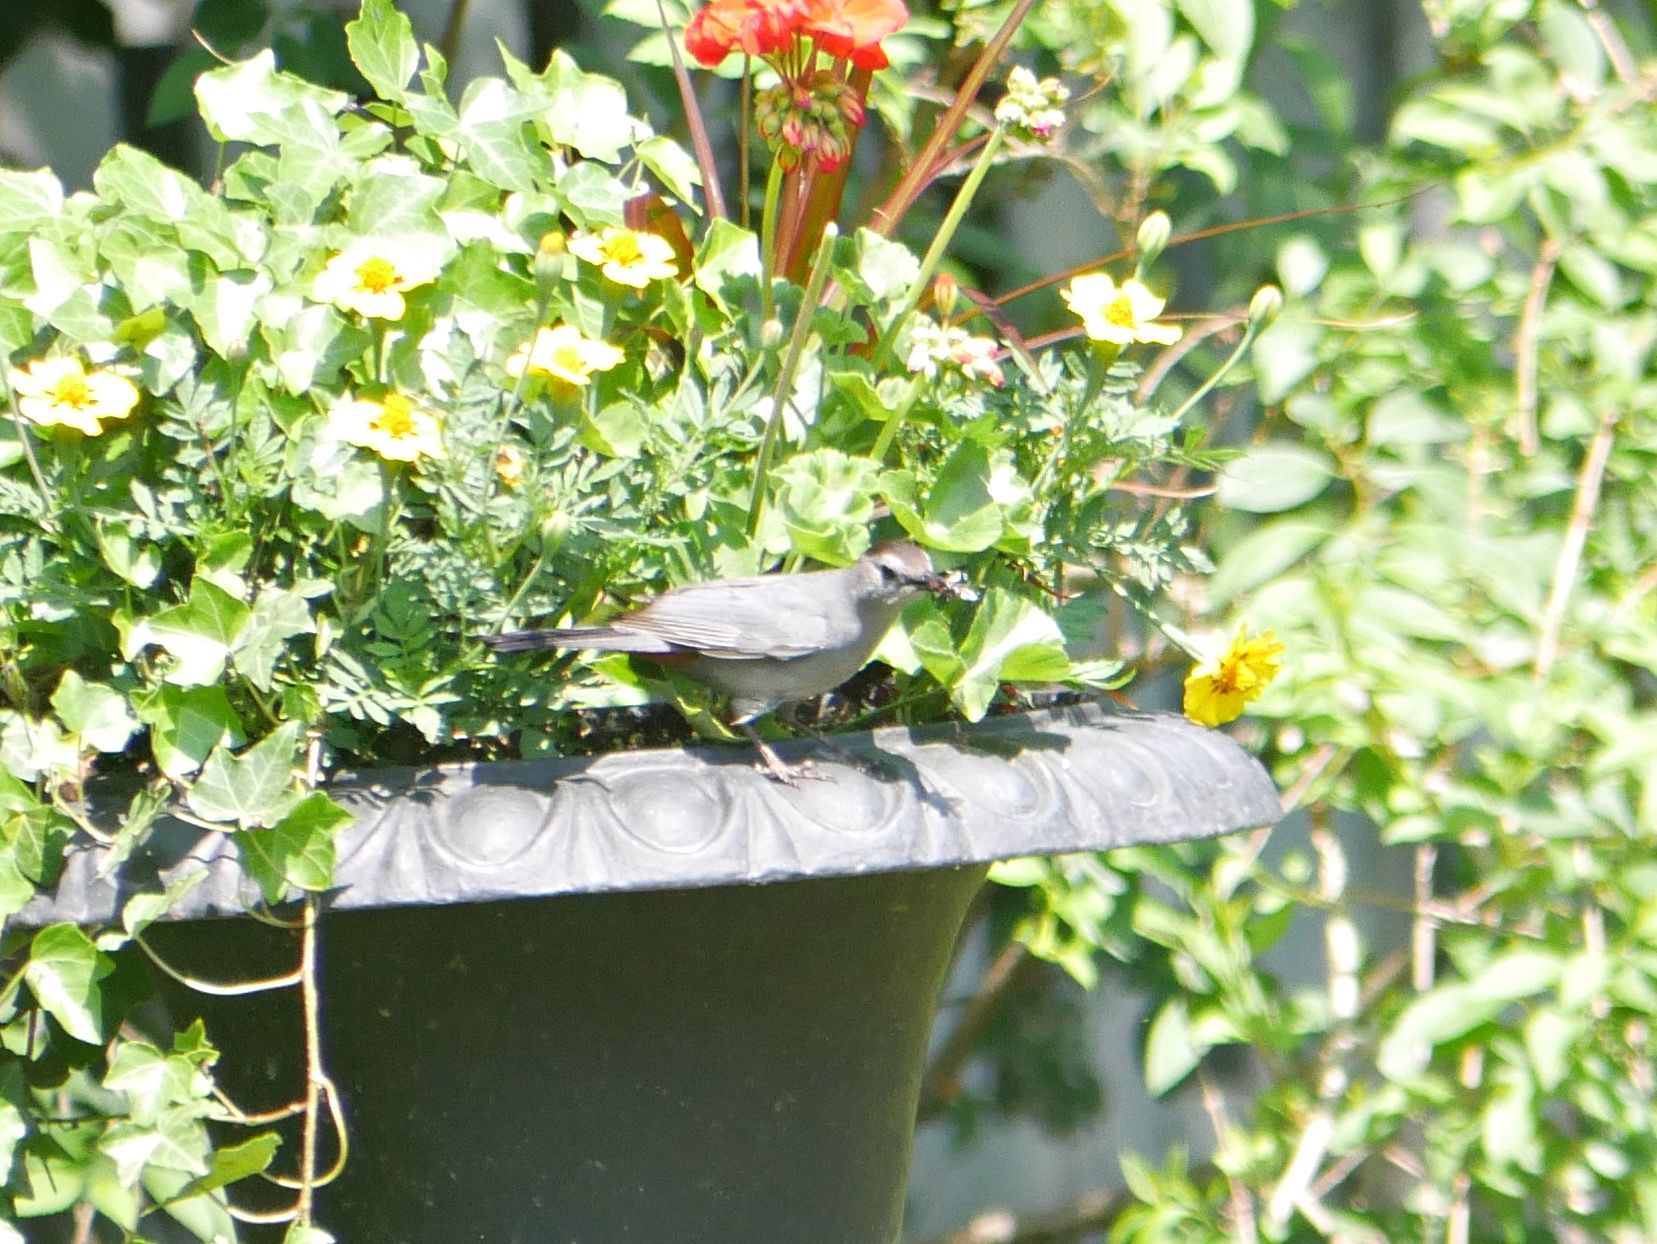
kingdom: Animalia
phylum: Chordata
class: Aves
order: Passeriformes
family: Mimidae
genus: Dumetella
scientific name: Dumetella carolinensis
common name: Gray catbird
